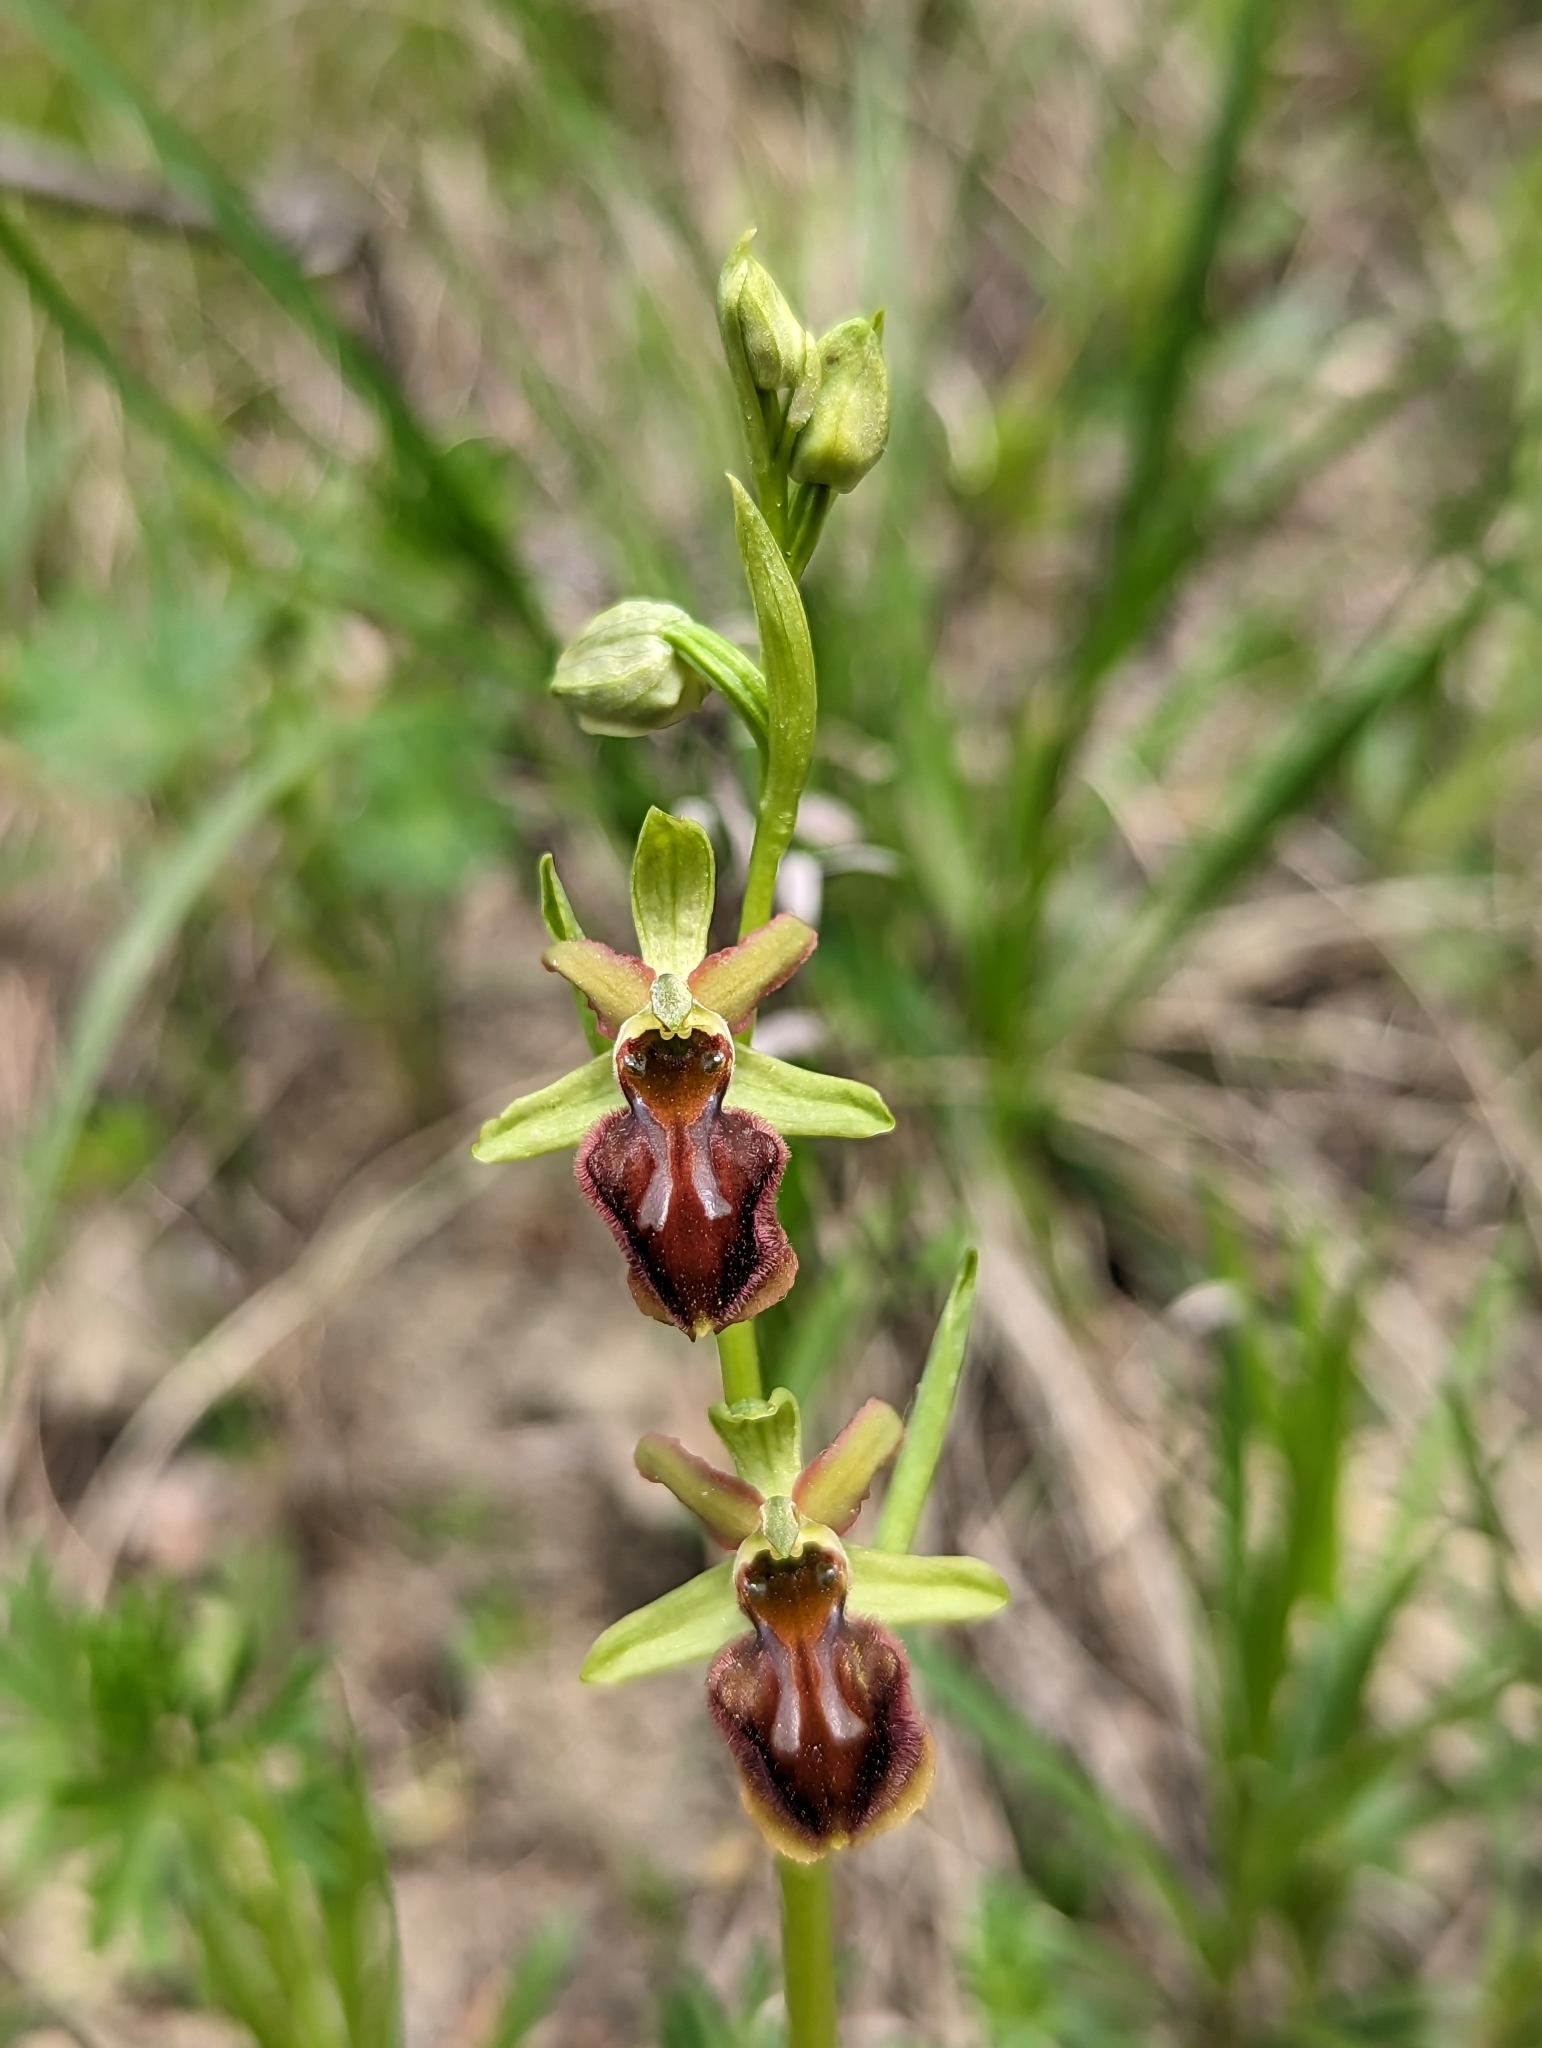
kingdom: Plantae
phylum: Tracheophyta
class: Liliopsida
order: Asparagales
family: Orchidaceae
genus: Ophrys
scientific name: Ophrys sphegodes
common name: Early spider-orchid
